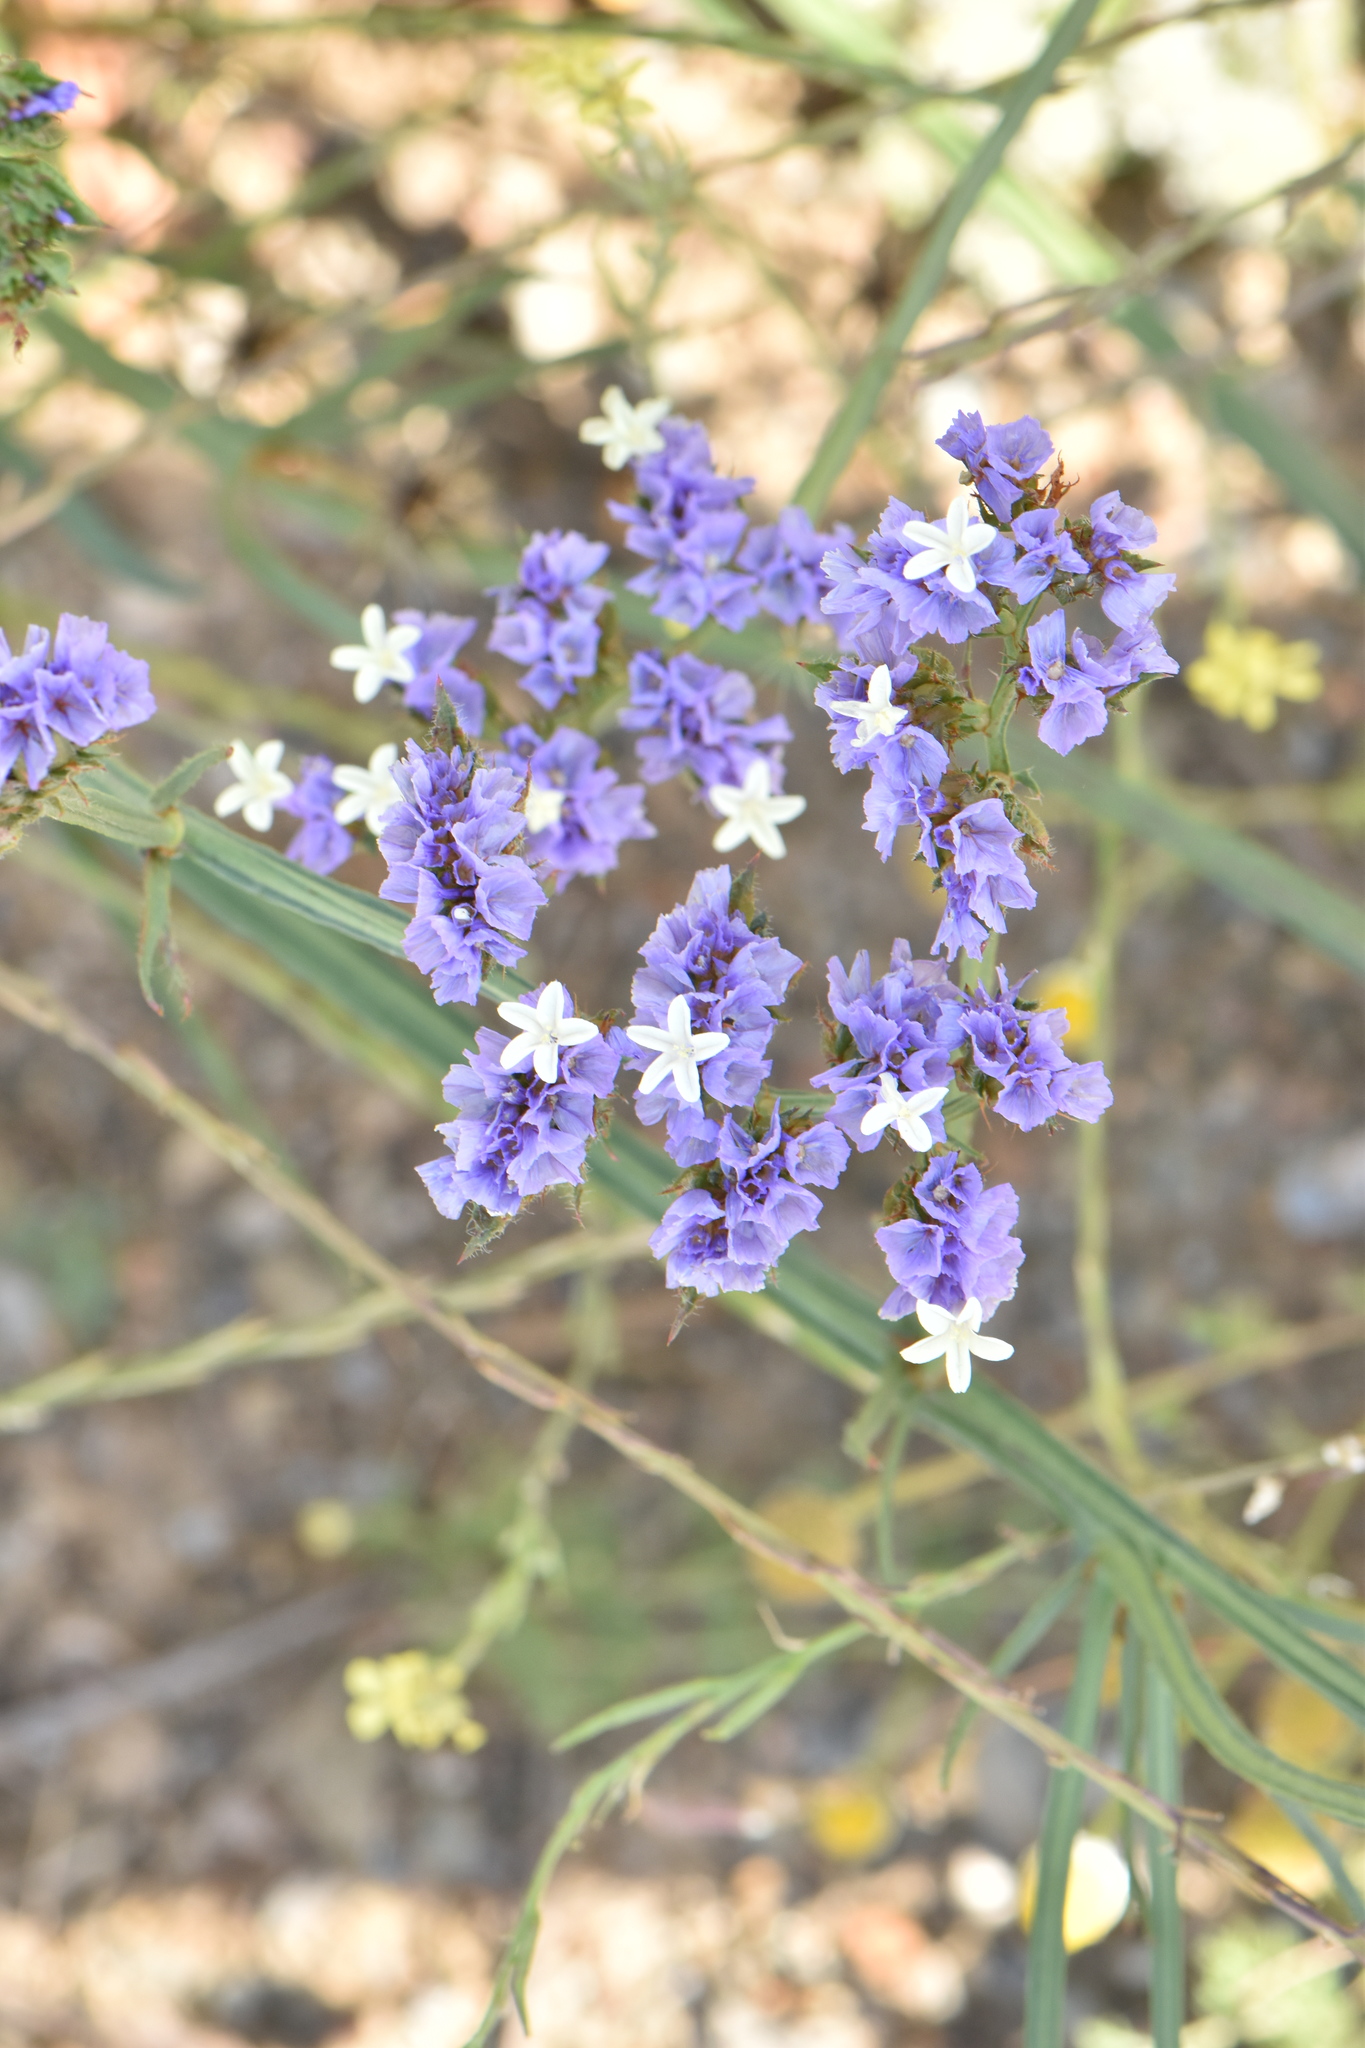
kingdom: Plantae
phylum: Tracheophyta
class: Magnoliopsida
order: Caryophyllales
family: Plumbaginaceae
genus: Limonium
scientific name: Limonium sinuatum
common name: Statice
